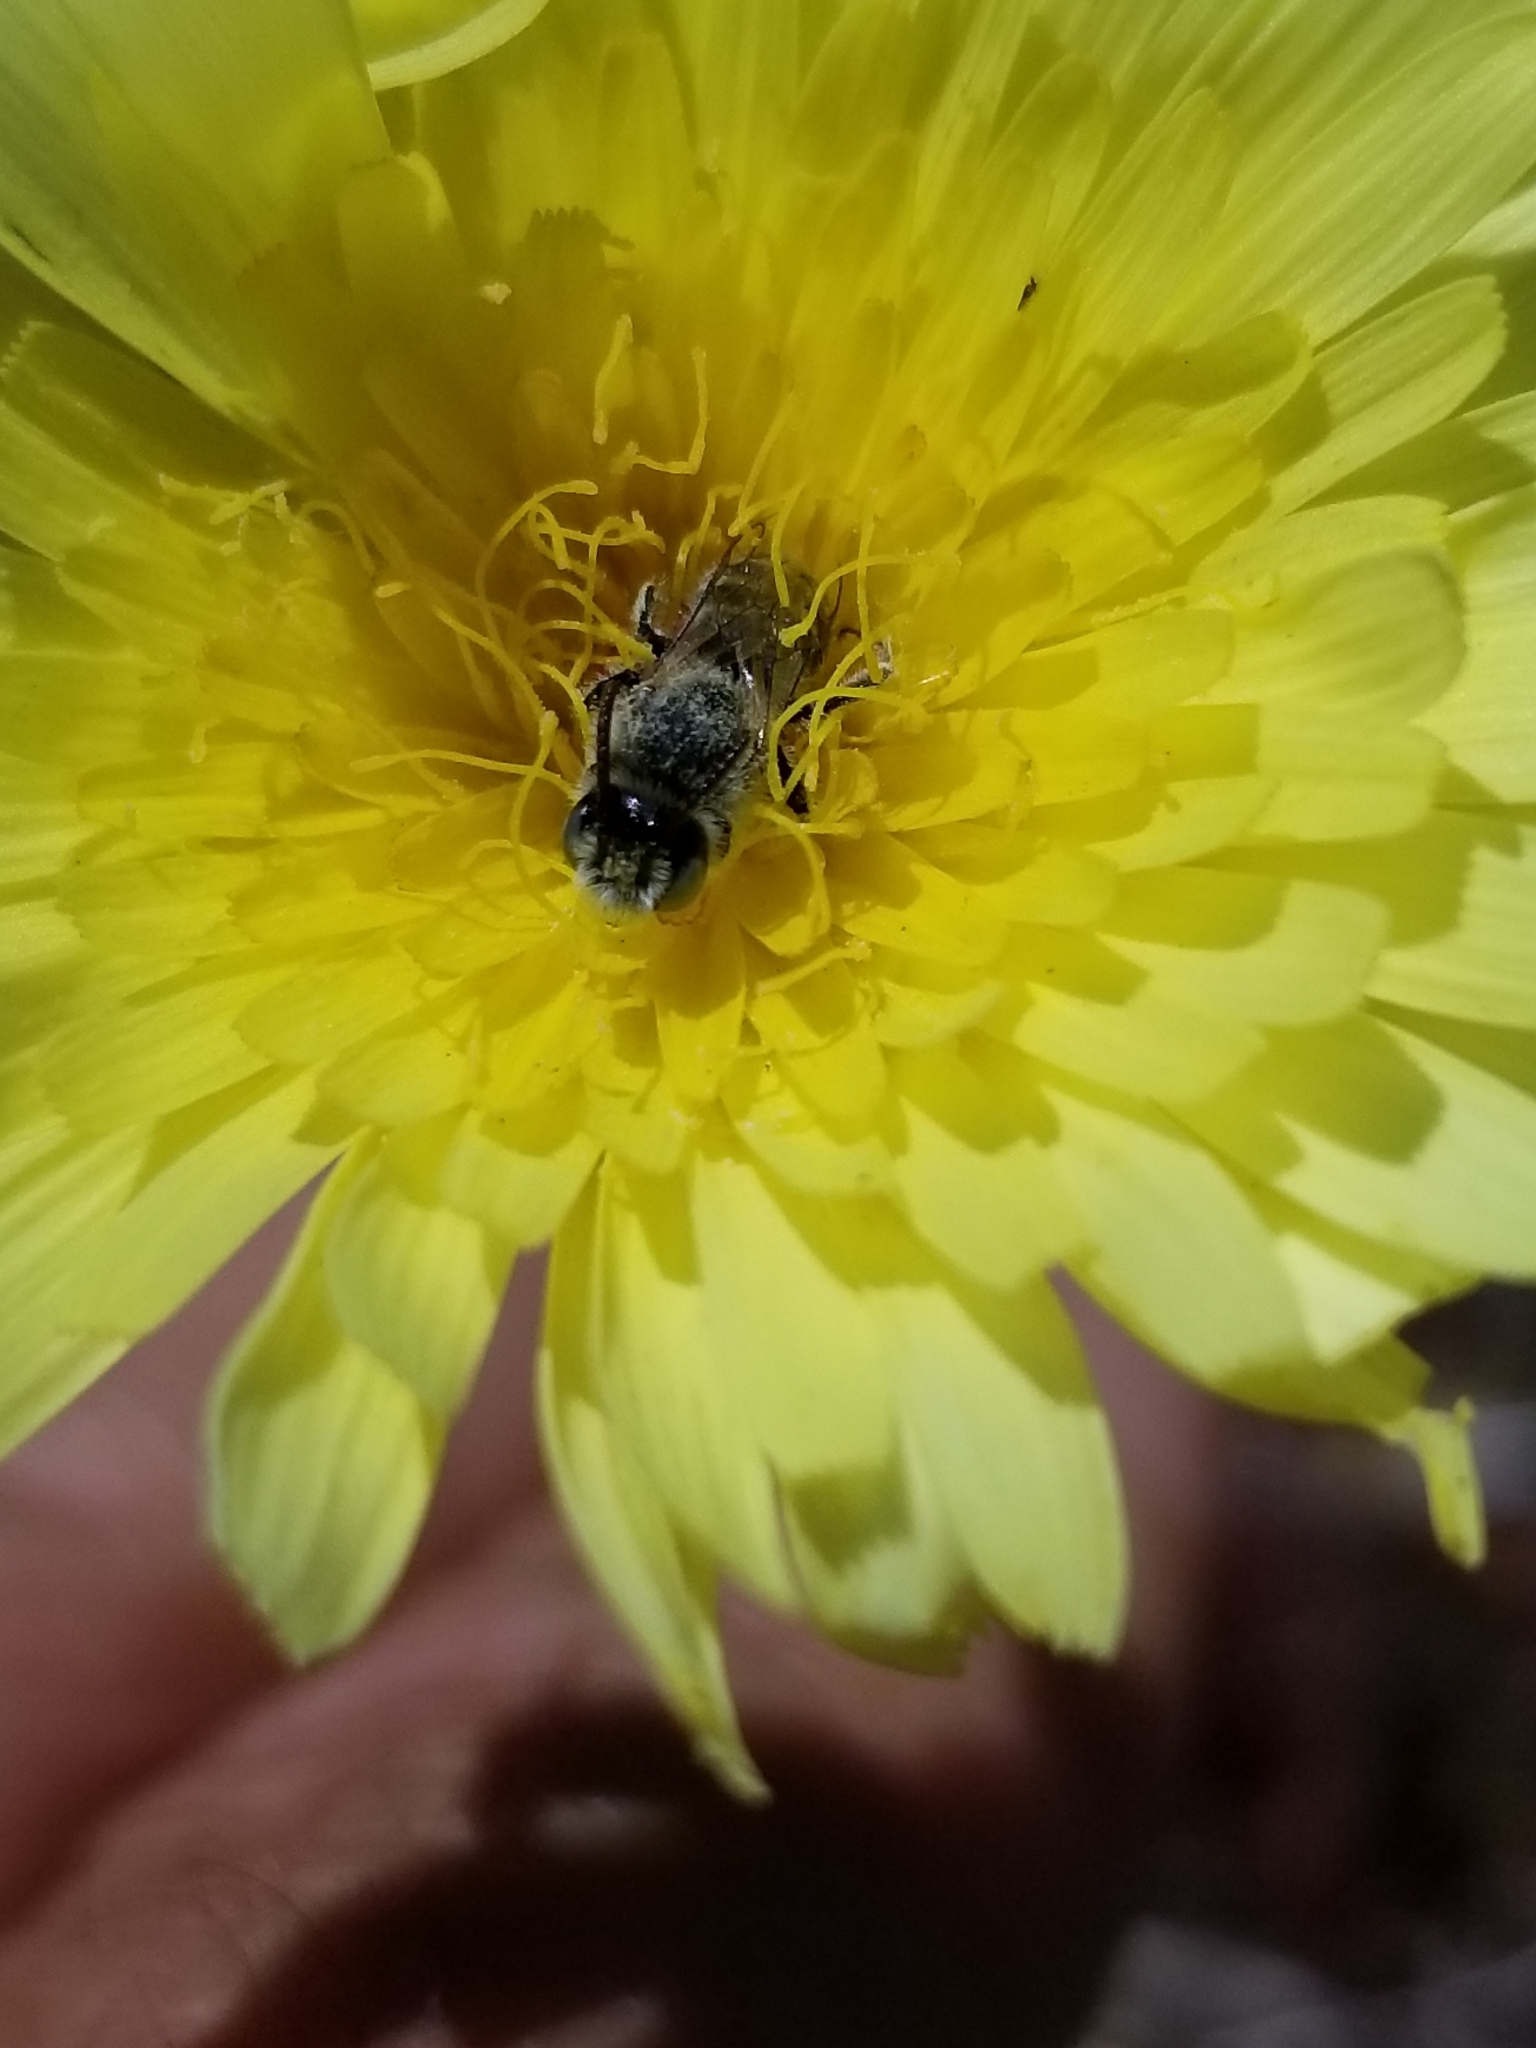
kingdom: Animalia
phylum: Arthropoda
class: Insecta
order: Hymenoptera
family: Melittidae
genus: Hesperapis
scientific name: Hesperapis
